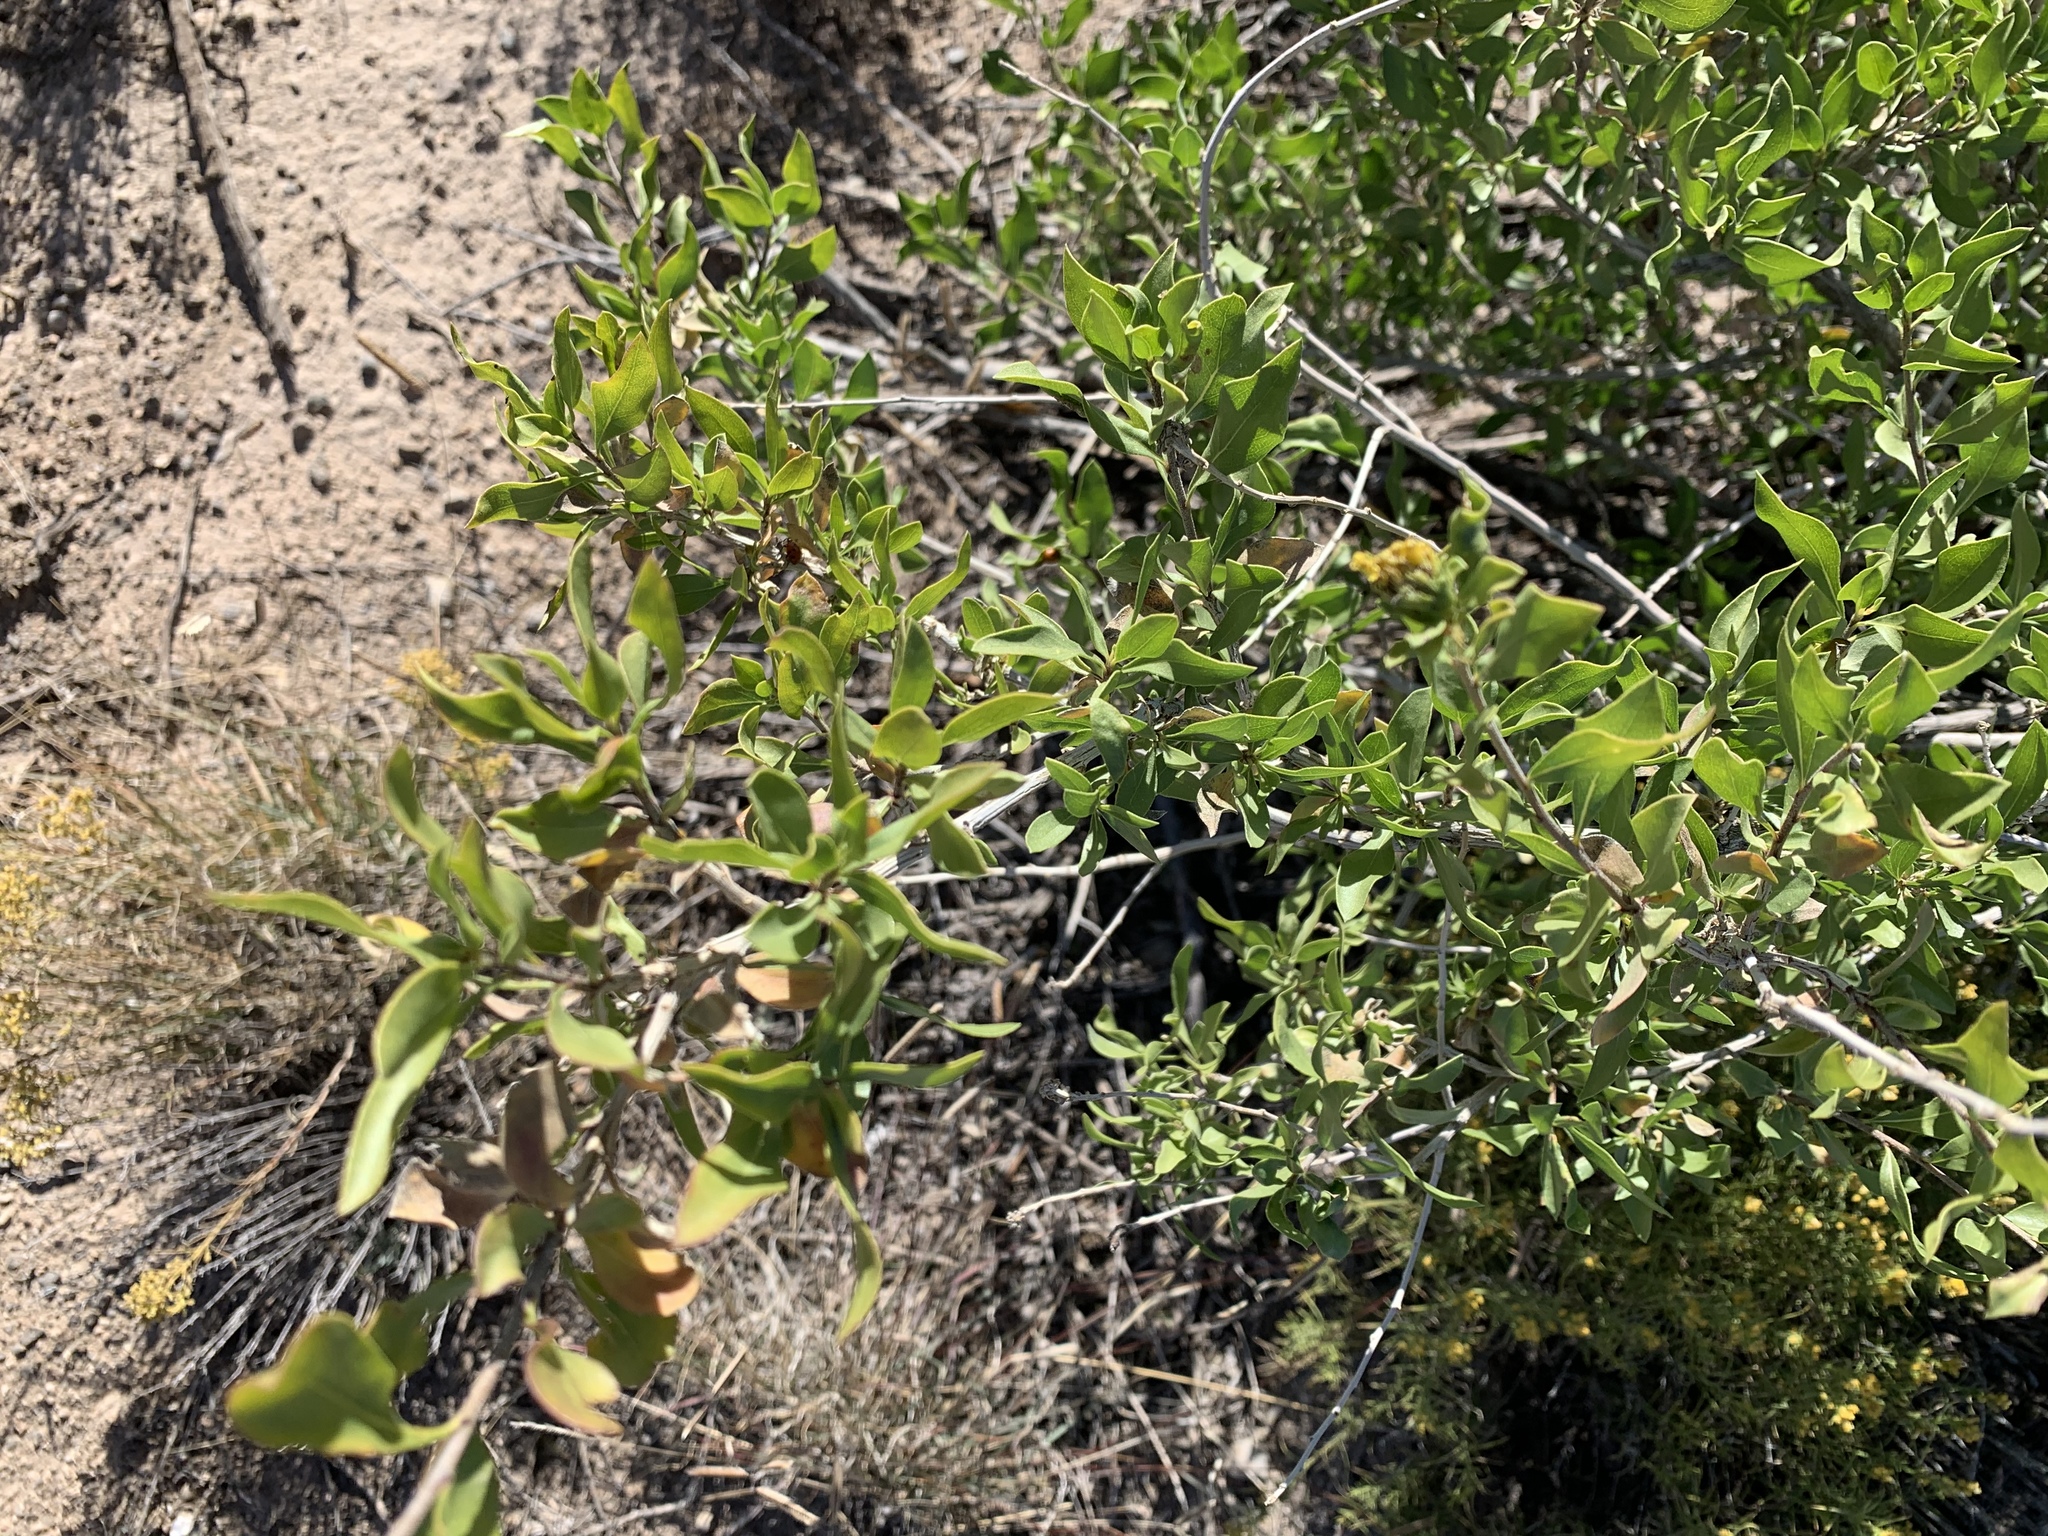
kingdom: Plantae
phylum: Tracheophyta
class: Magnoliopsida
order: Asterales
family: Asteraceae
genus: Flourensia
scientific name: Flourensia cernua
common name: Varnishbush
